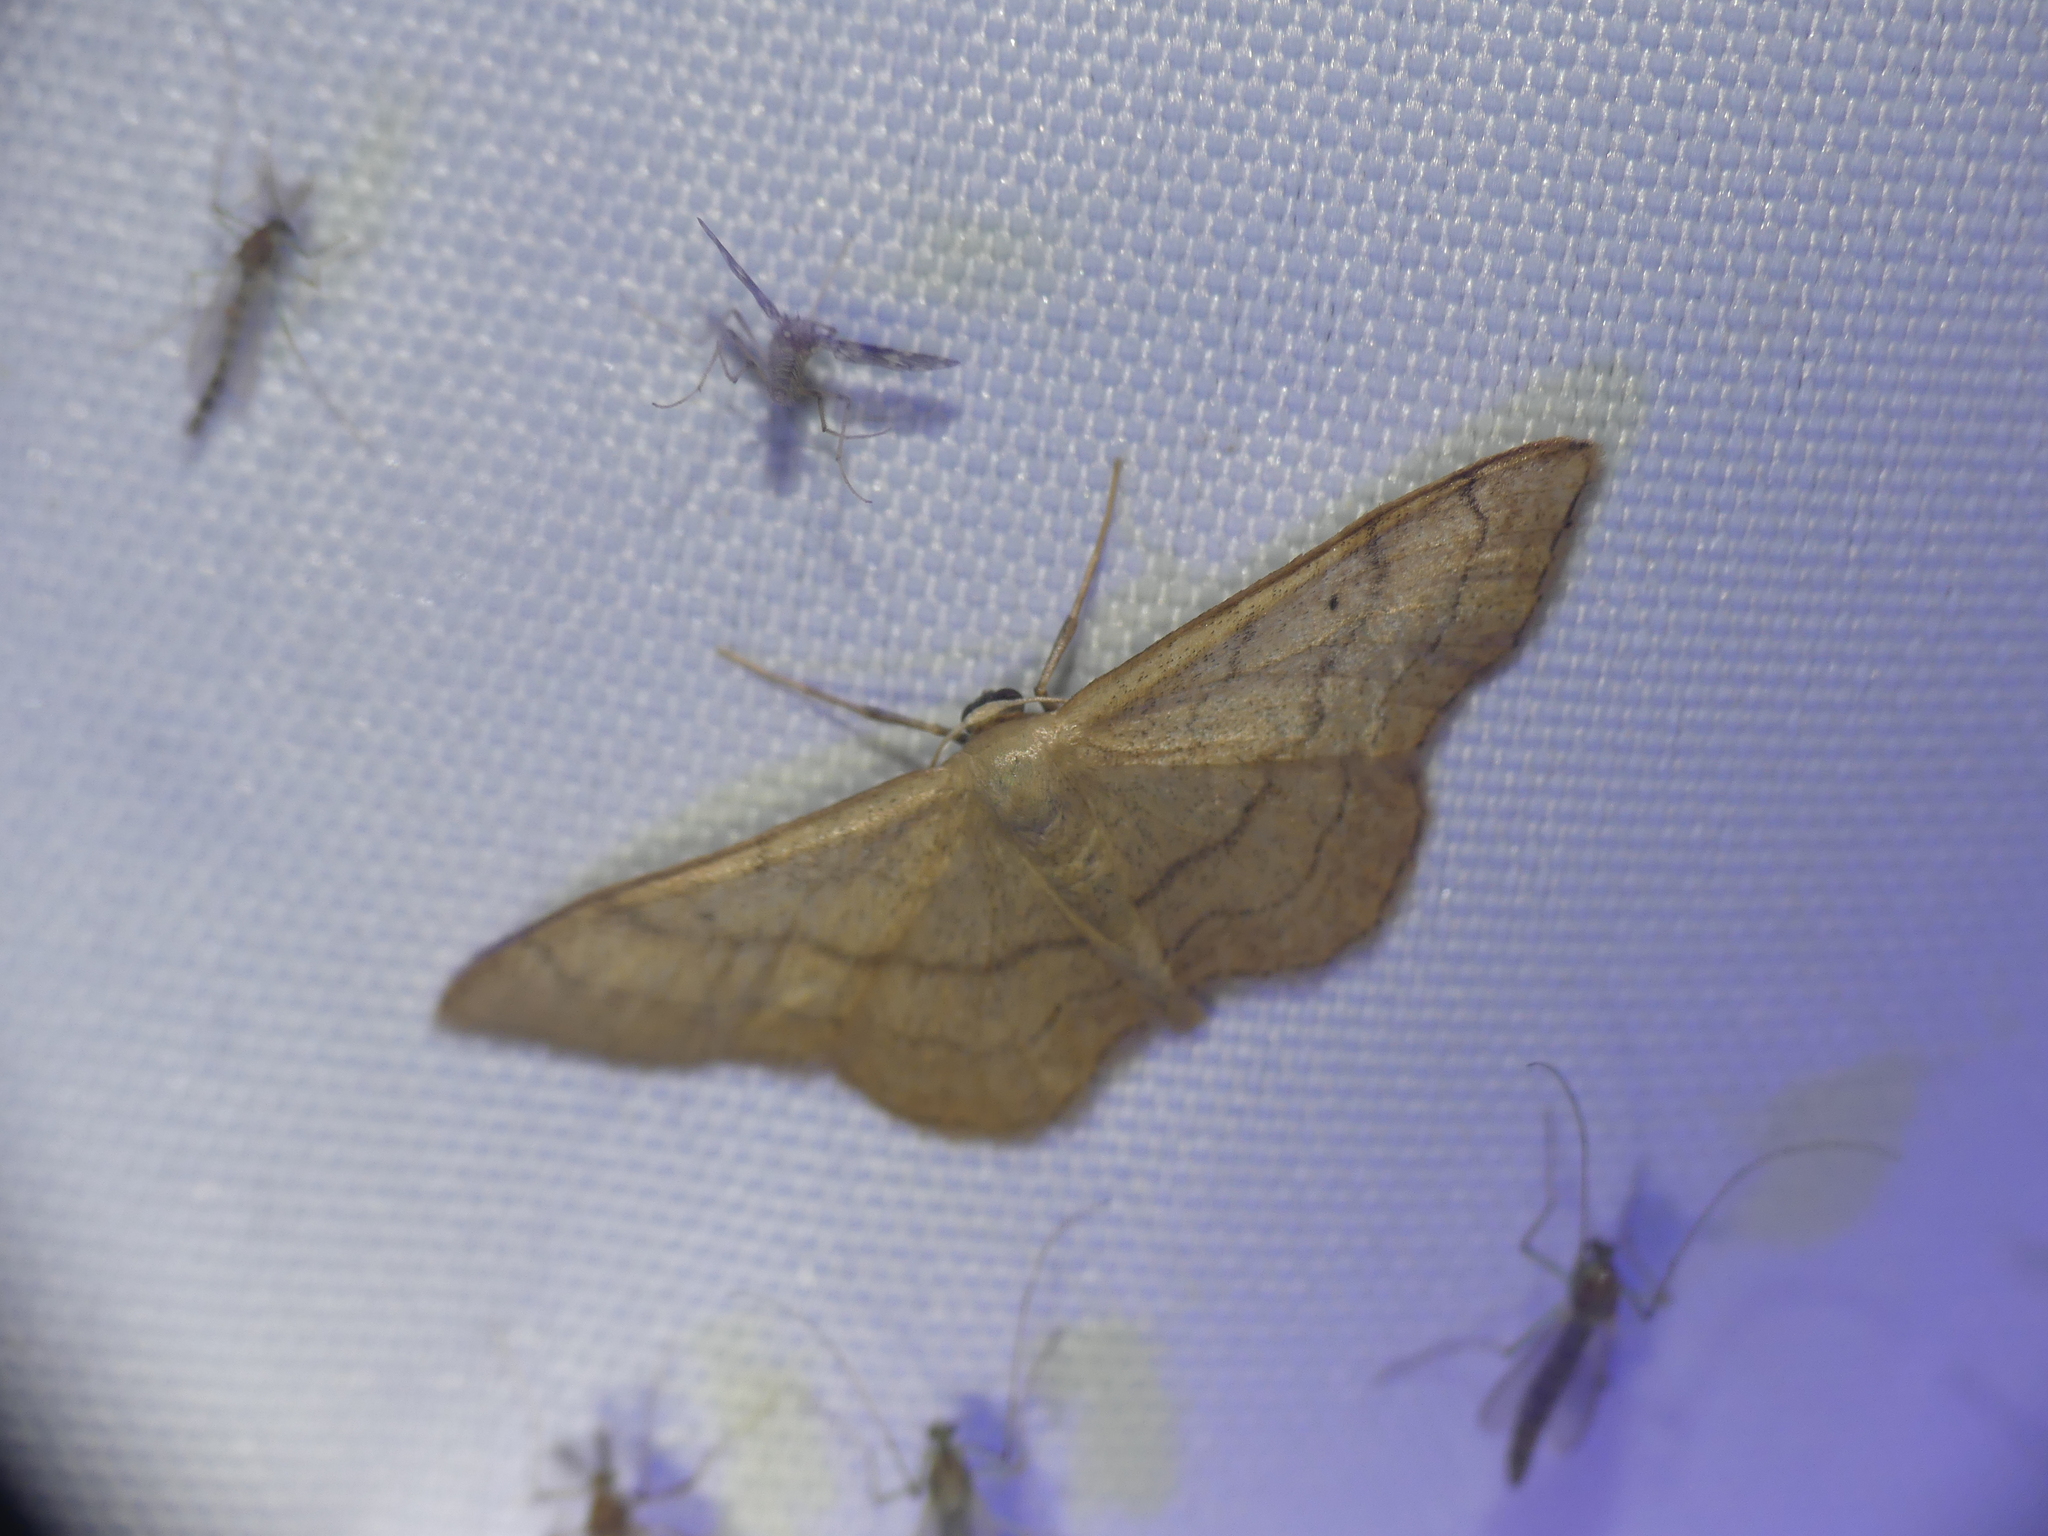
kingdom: Animalia
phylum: Arthropoda
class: Insecta
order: Lepidoptera
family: Geometridae
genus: Idaea
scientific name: Idaea aversata
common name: Riband wave
